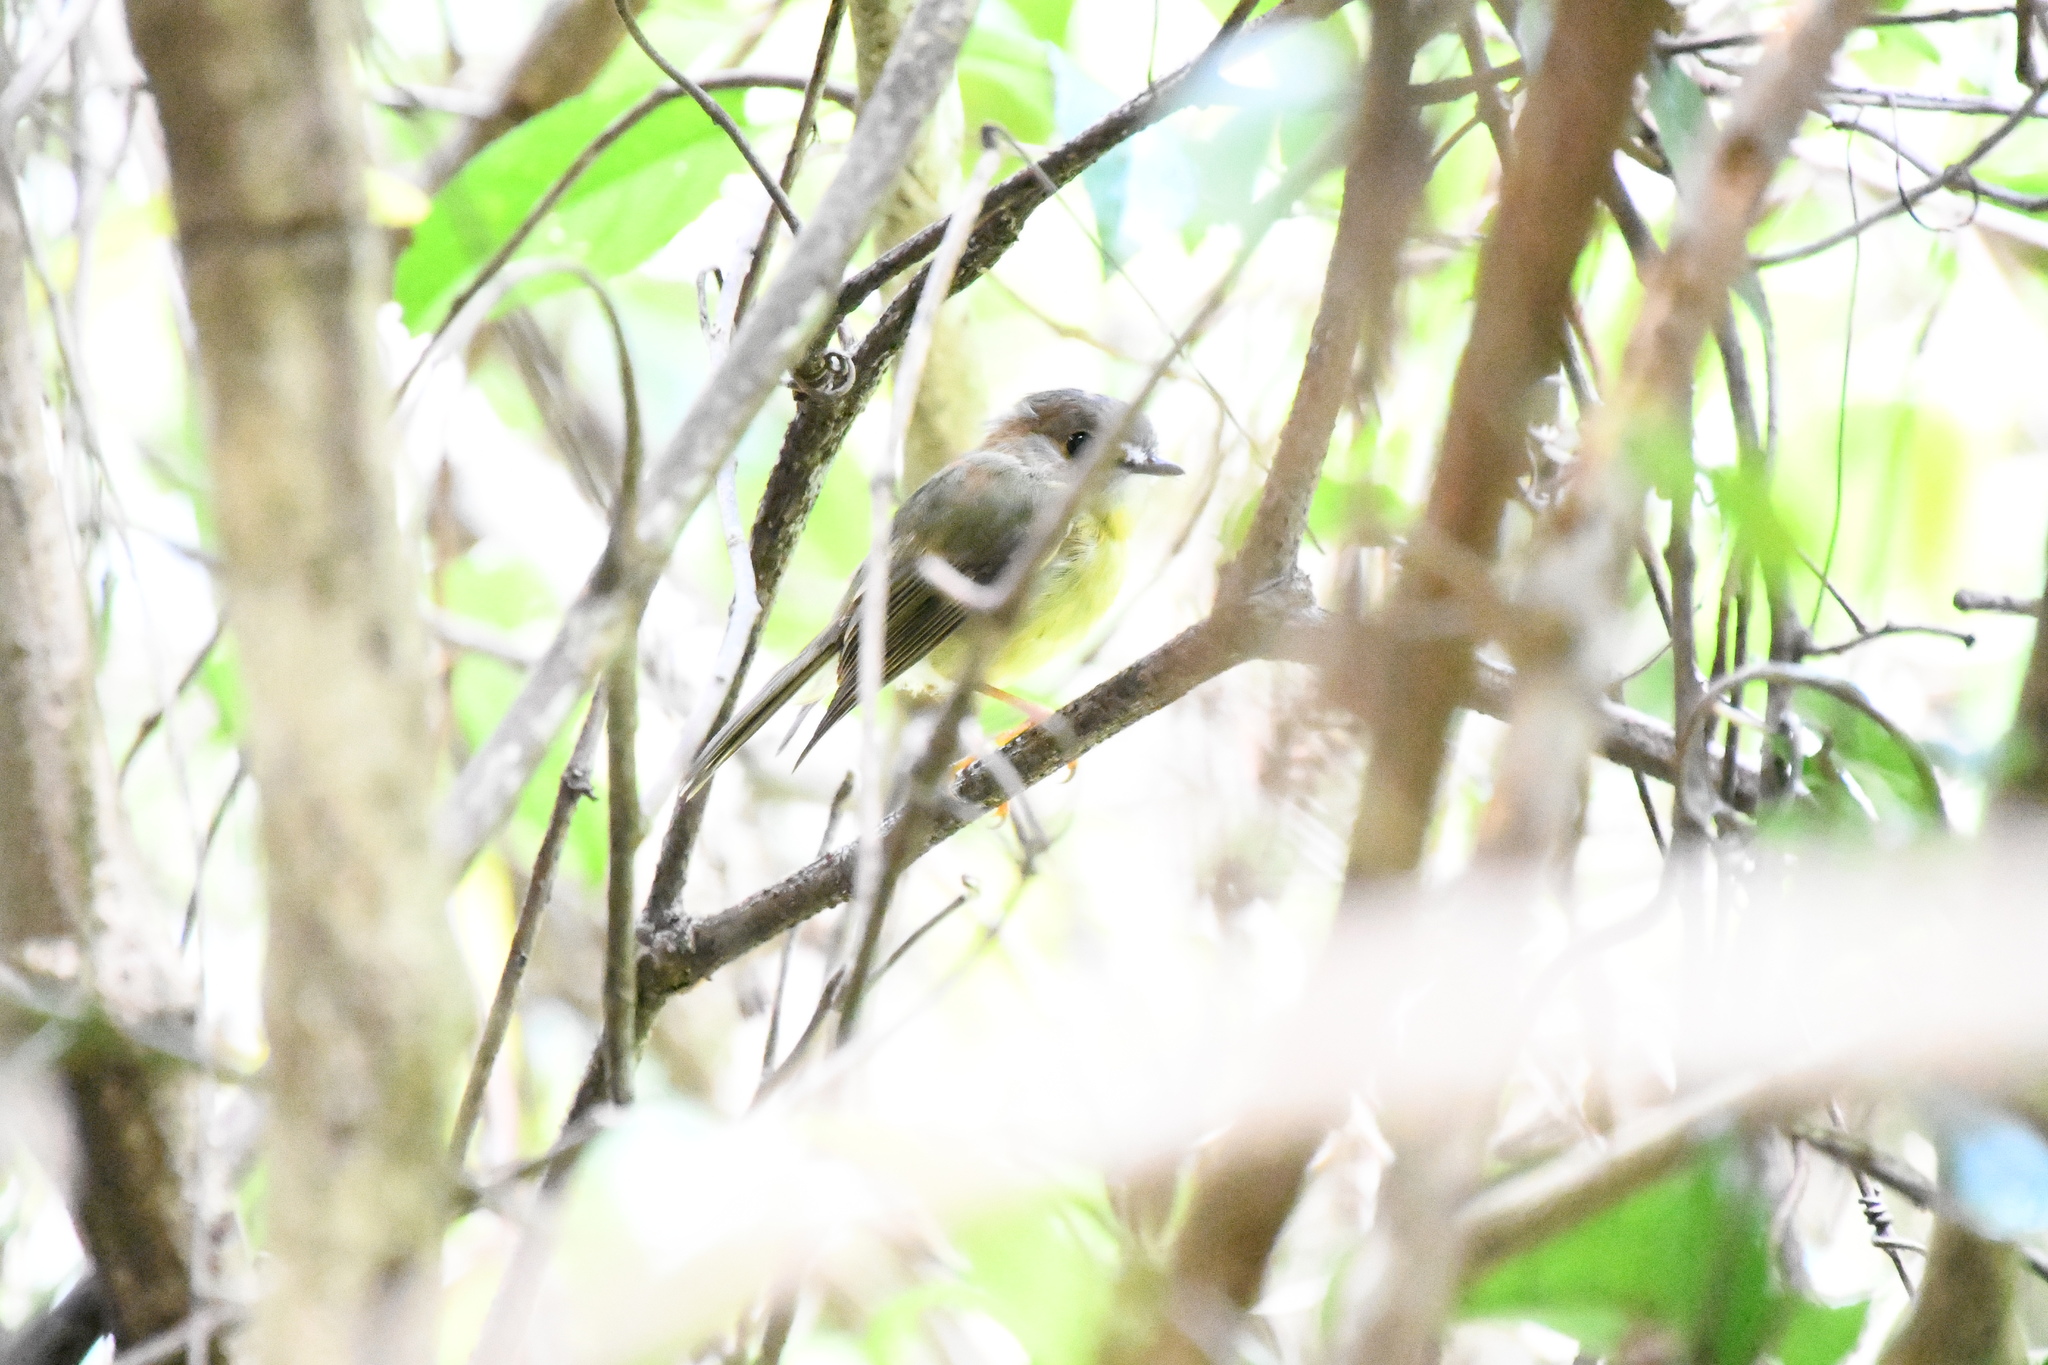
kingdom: Animalia
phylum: Chordata
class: Aves
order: Passeriformes
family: Petroicidae
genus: Eopsaltria
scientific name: Eopsaltria
